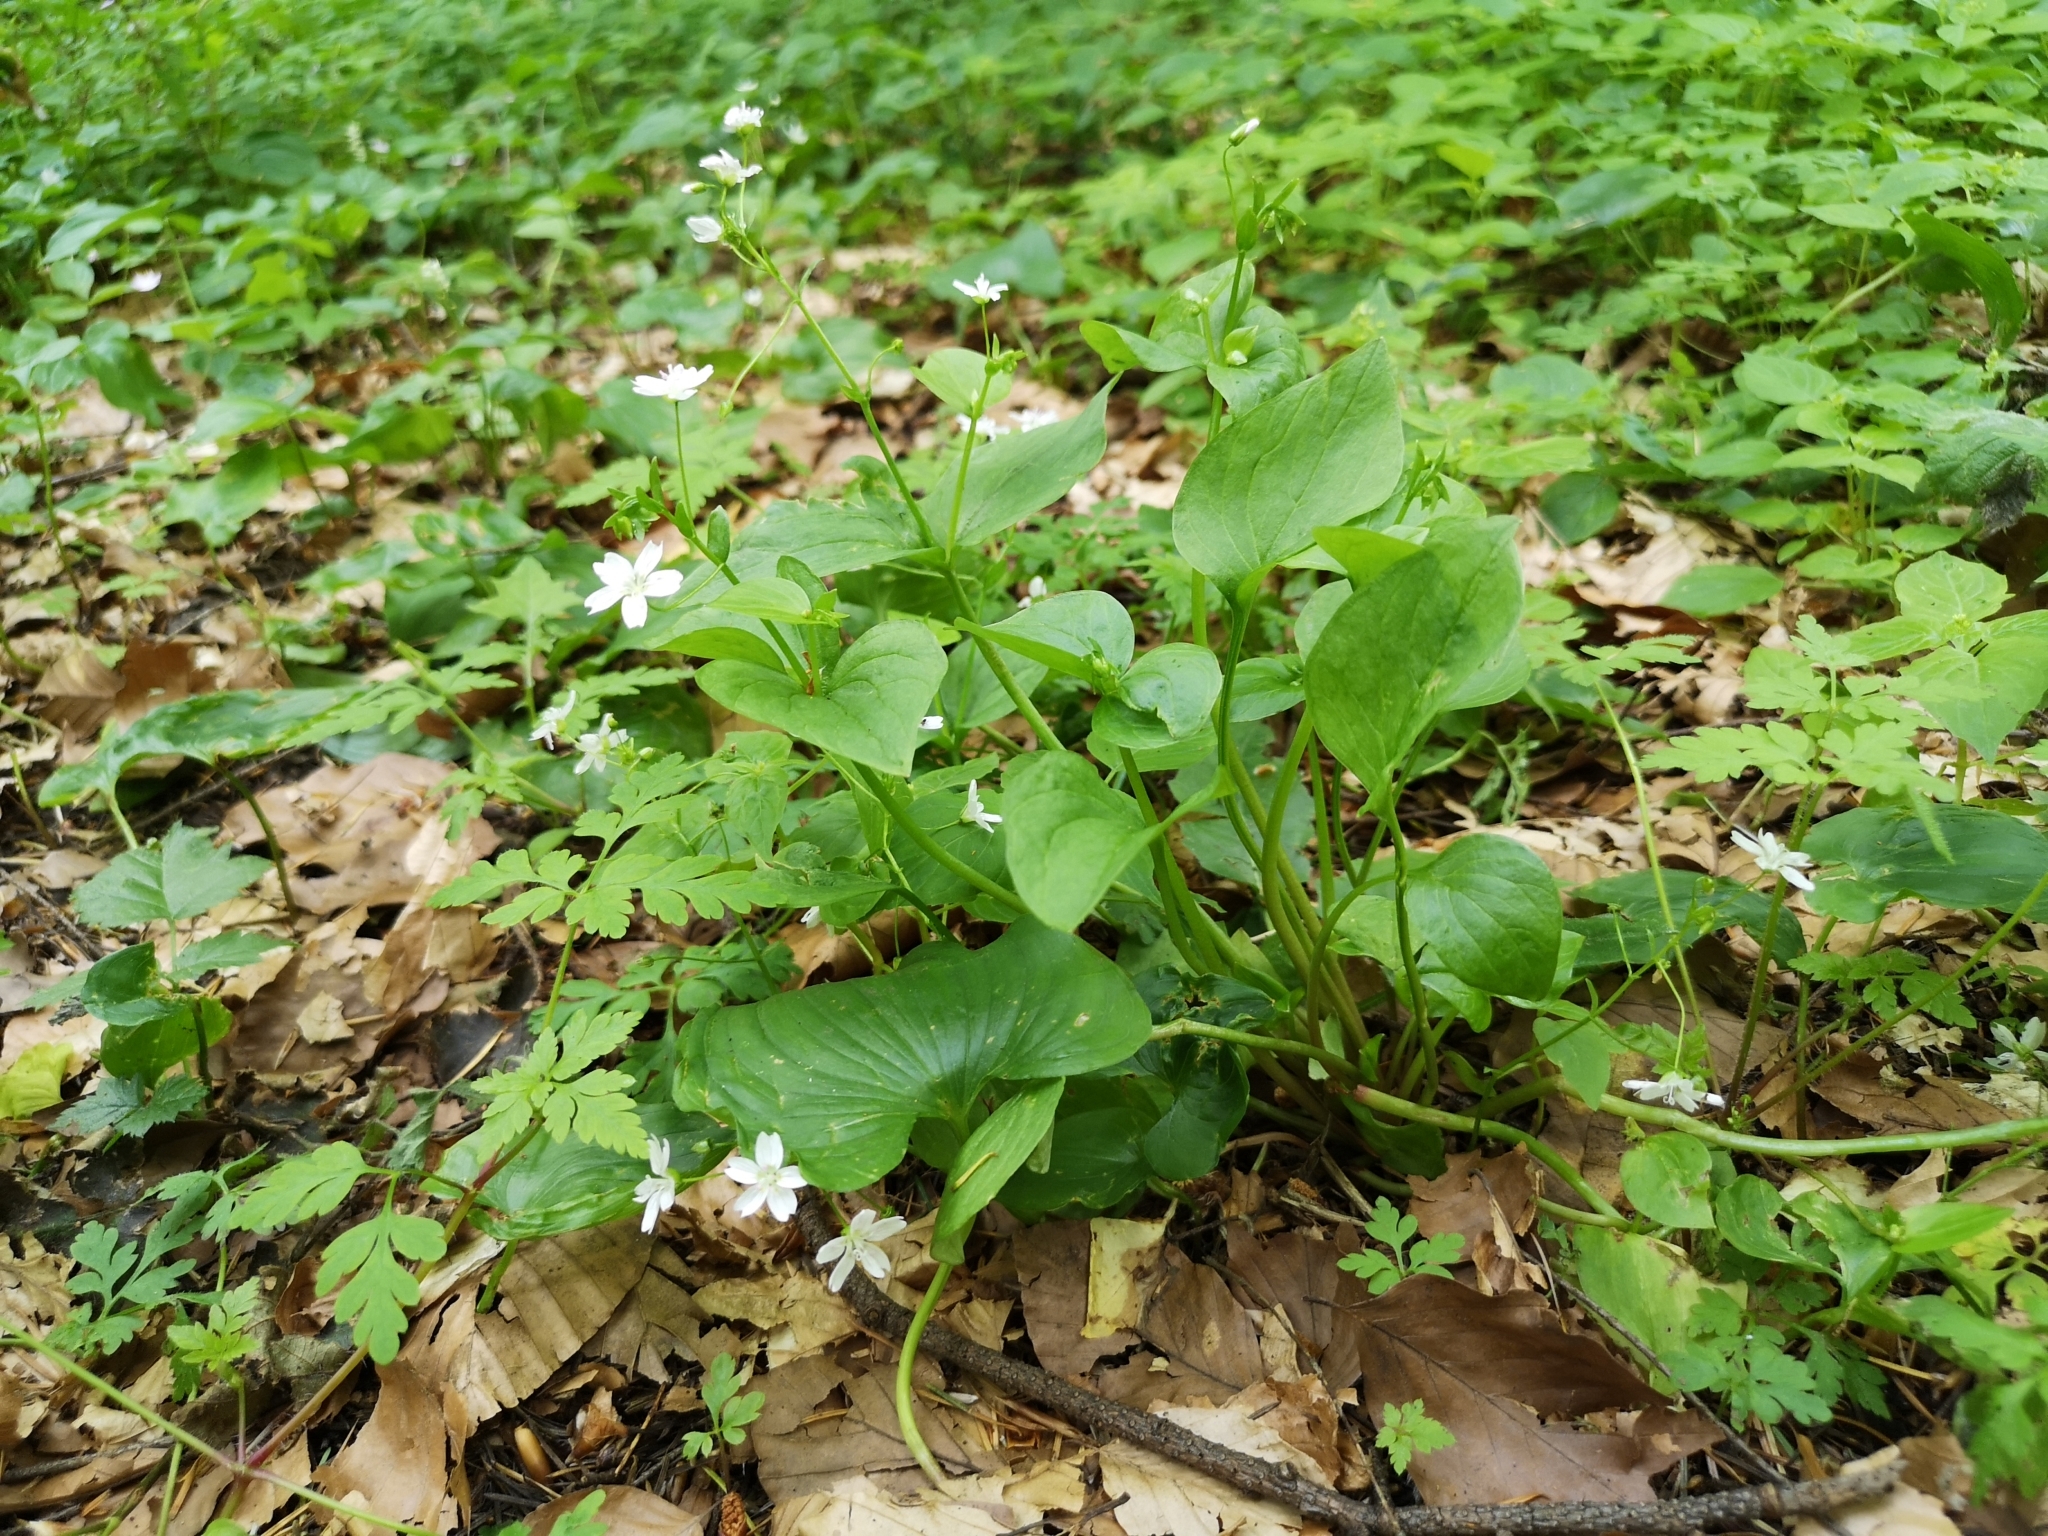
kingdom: Plantae
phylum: Tracheophyta
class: Magnoliopsida
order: Caryophyllales
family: Montiaceae
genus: Claytonia
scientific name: Claytonia sibirica
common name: Pink purslane
